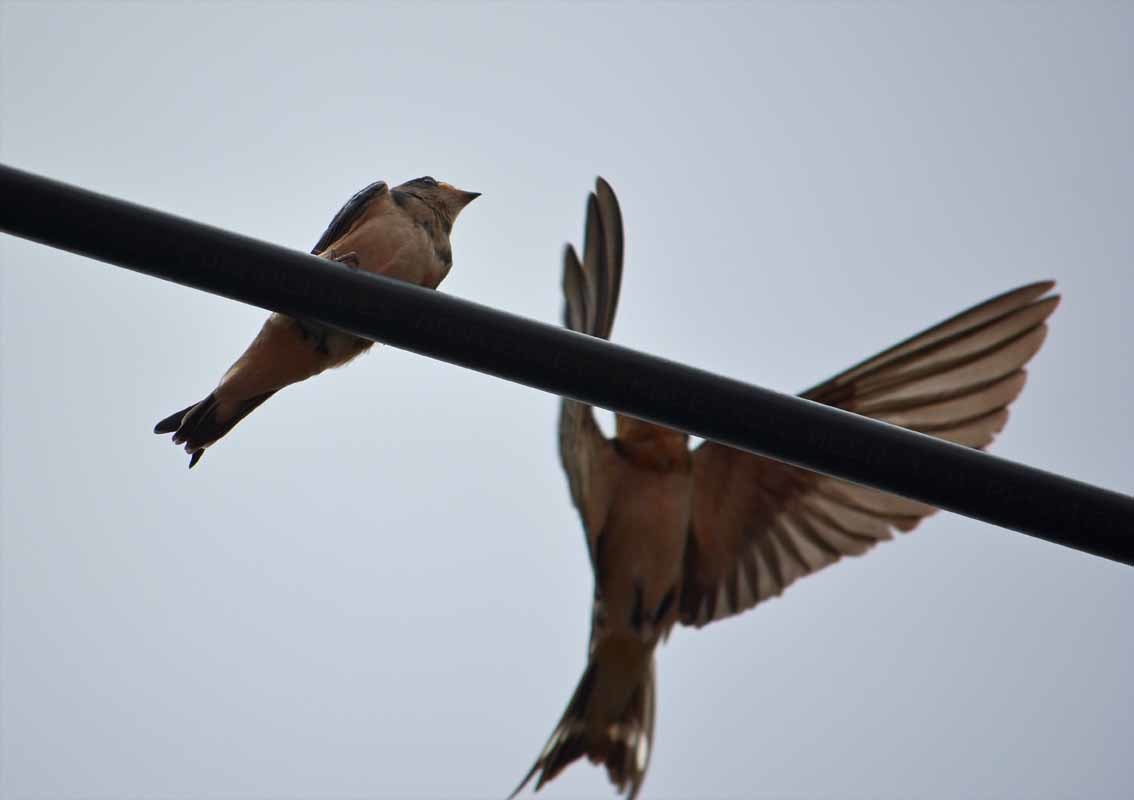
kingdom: Animalia
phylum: Chordata
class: Aves
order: Passeriformes
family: Hirundinidae
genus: Hirundo
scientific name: Hirundo rustica
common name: Barn swallow
